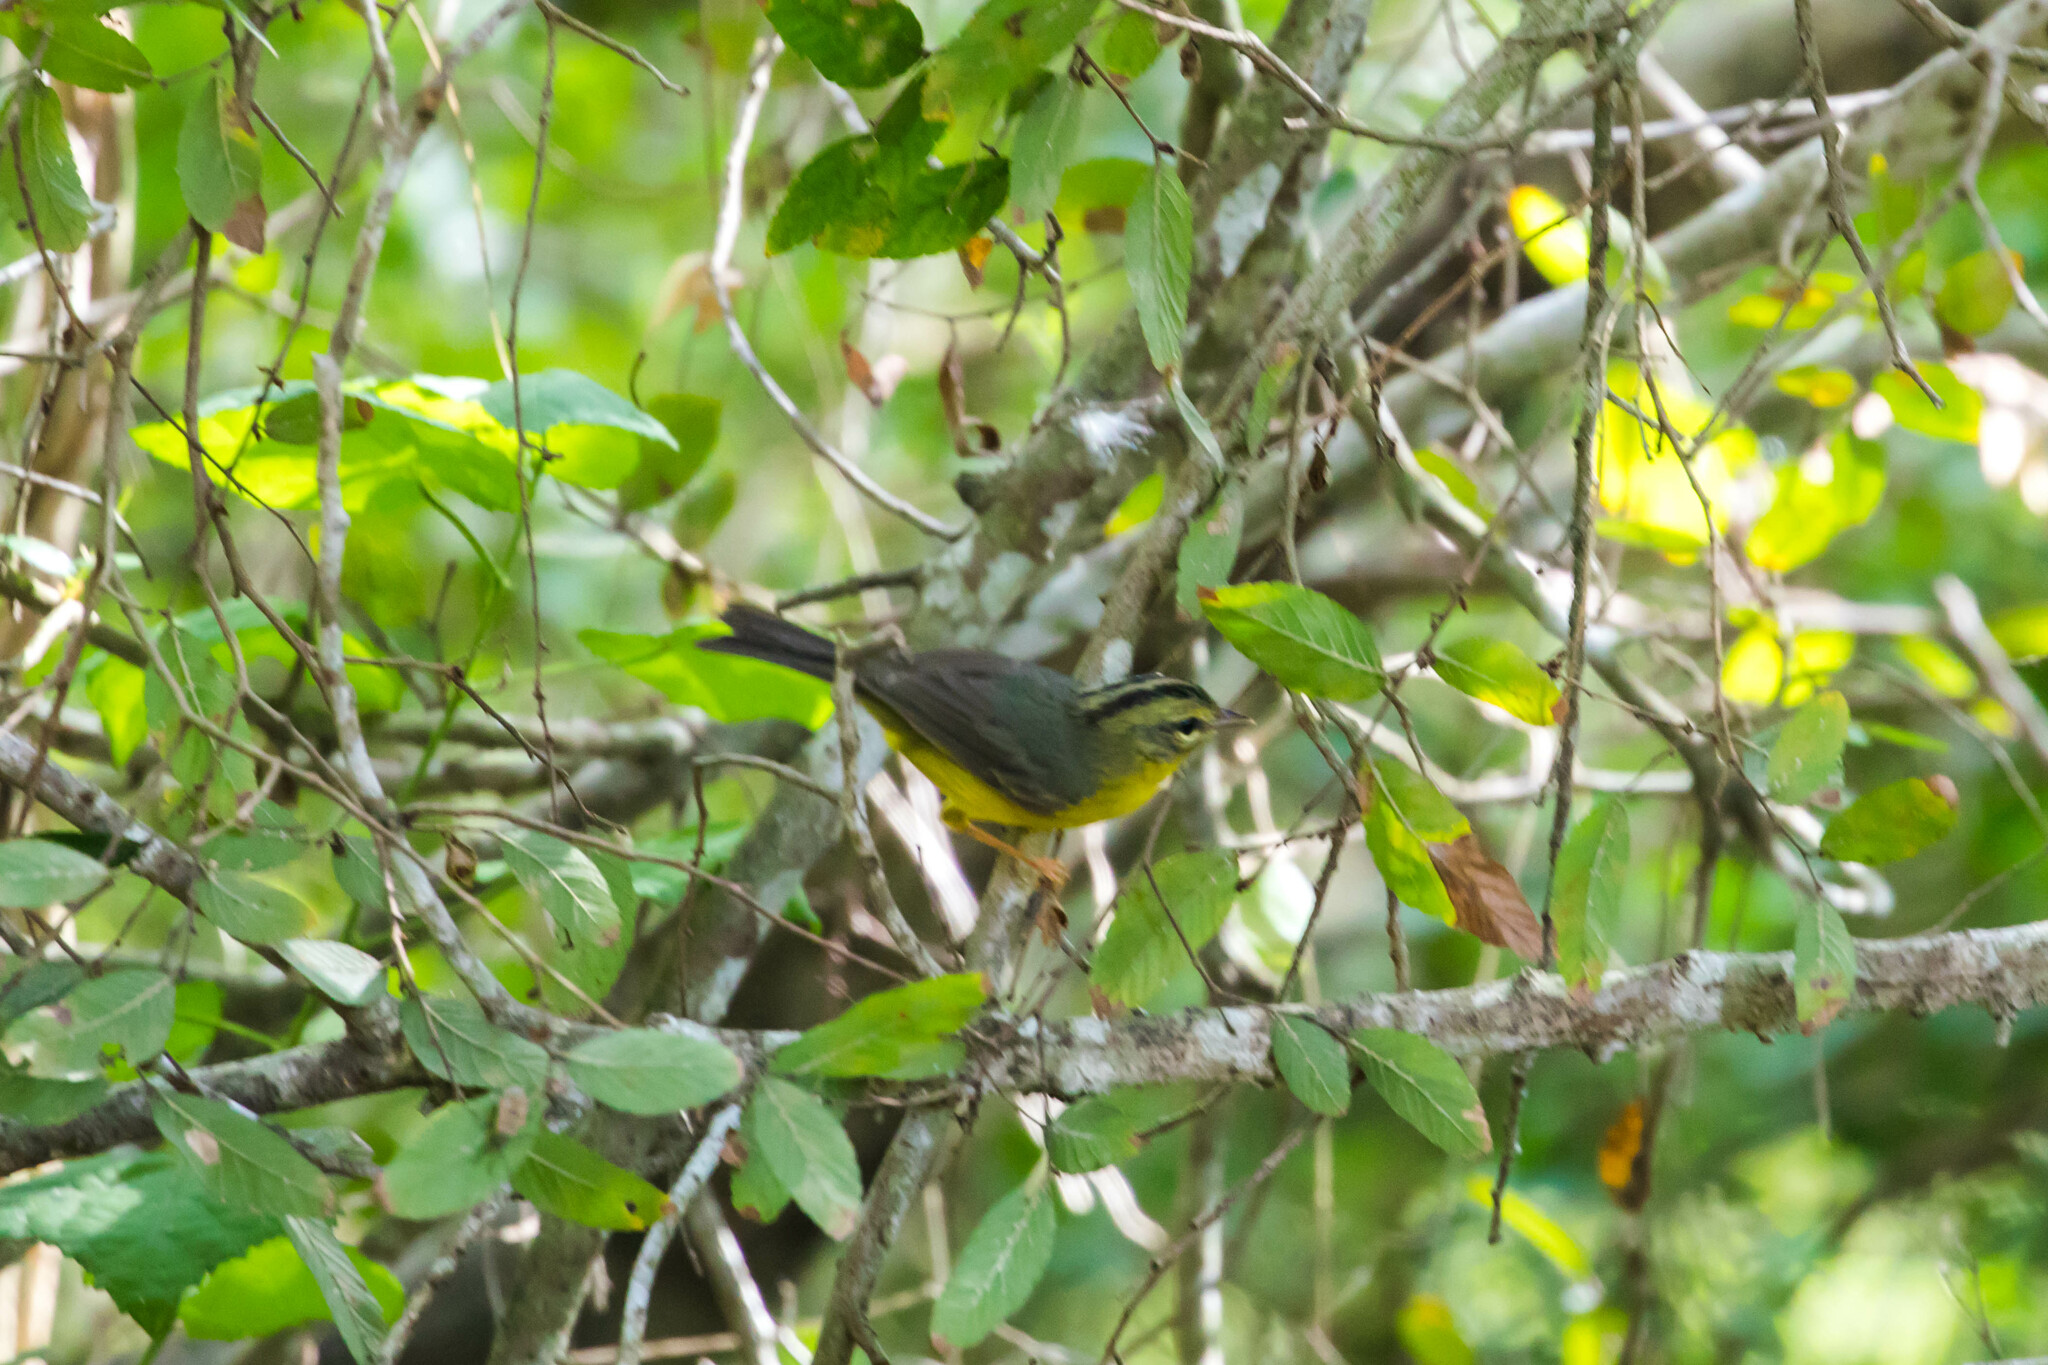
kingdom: Animalia
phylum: Chordata
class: Aves
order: Passeriformes
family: Parulidae
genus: Basileuterus
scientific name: Basileuterus culicivorus
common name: Golden-crowned warbler
